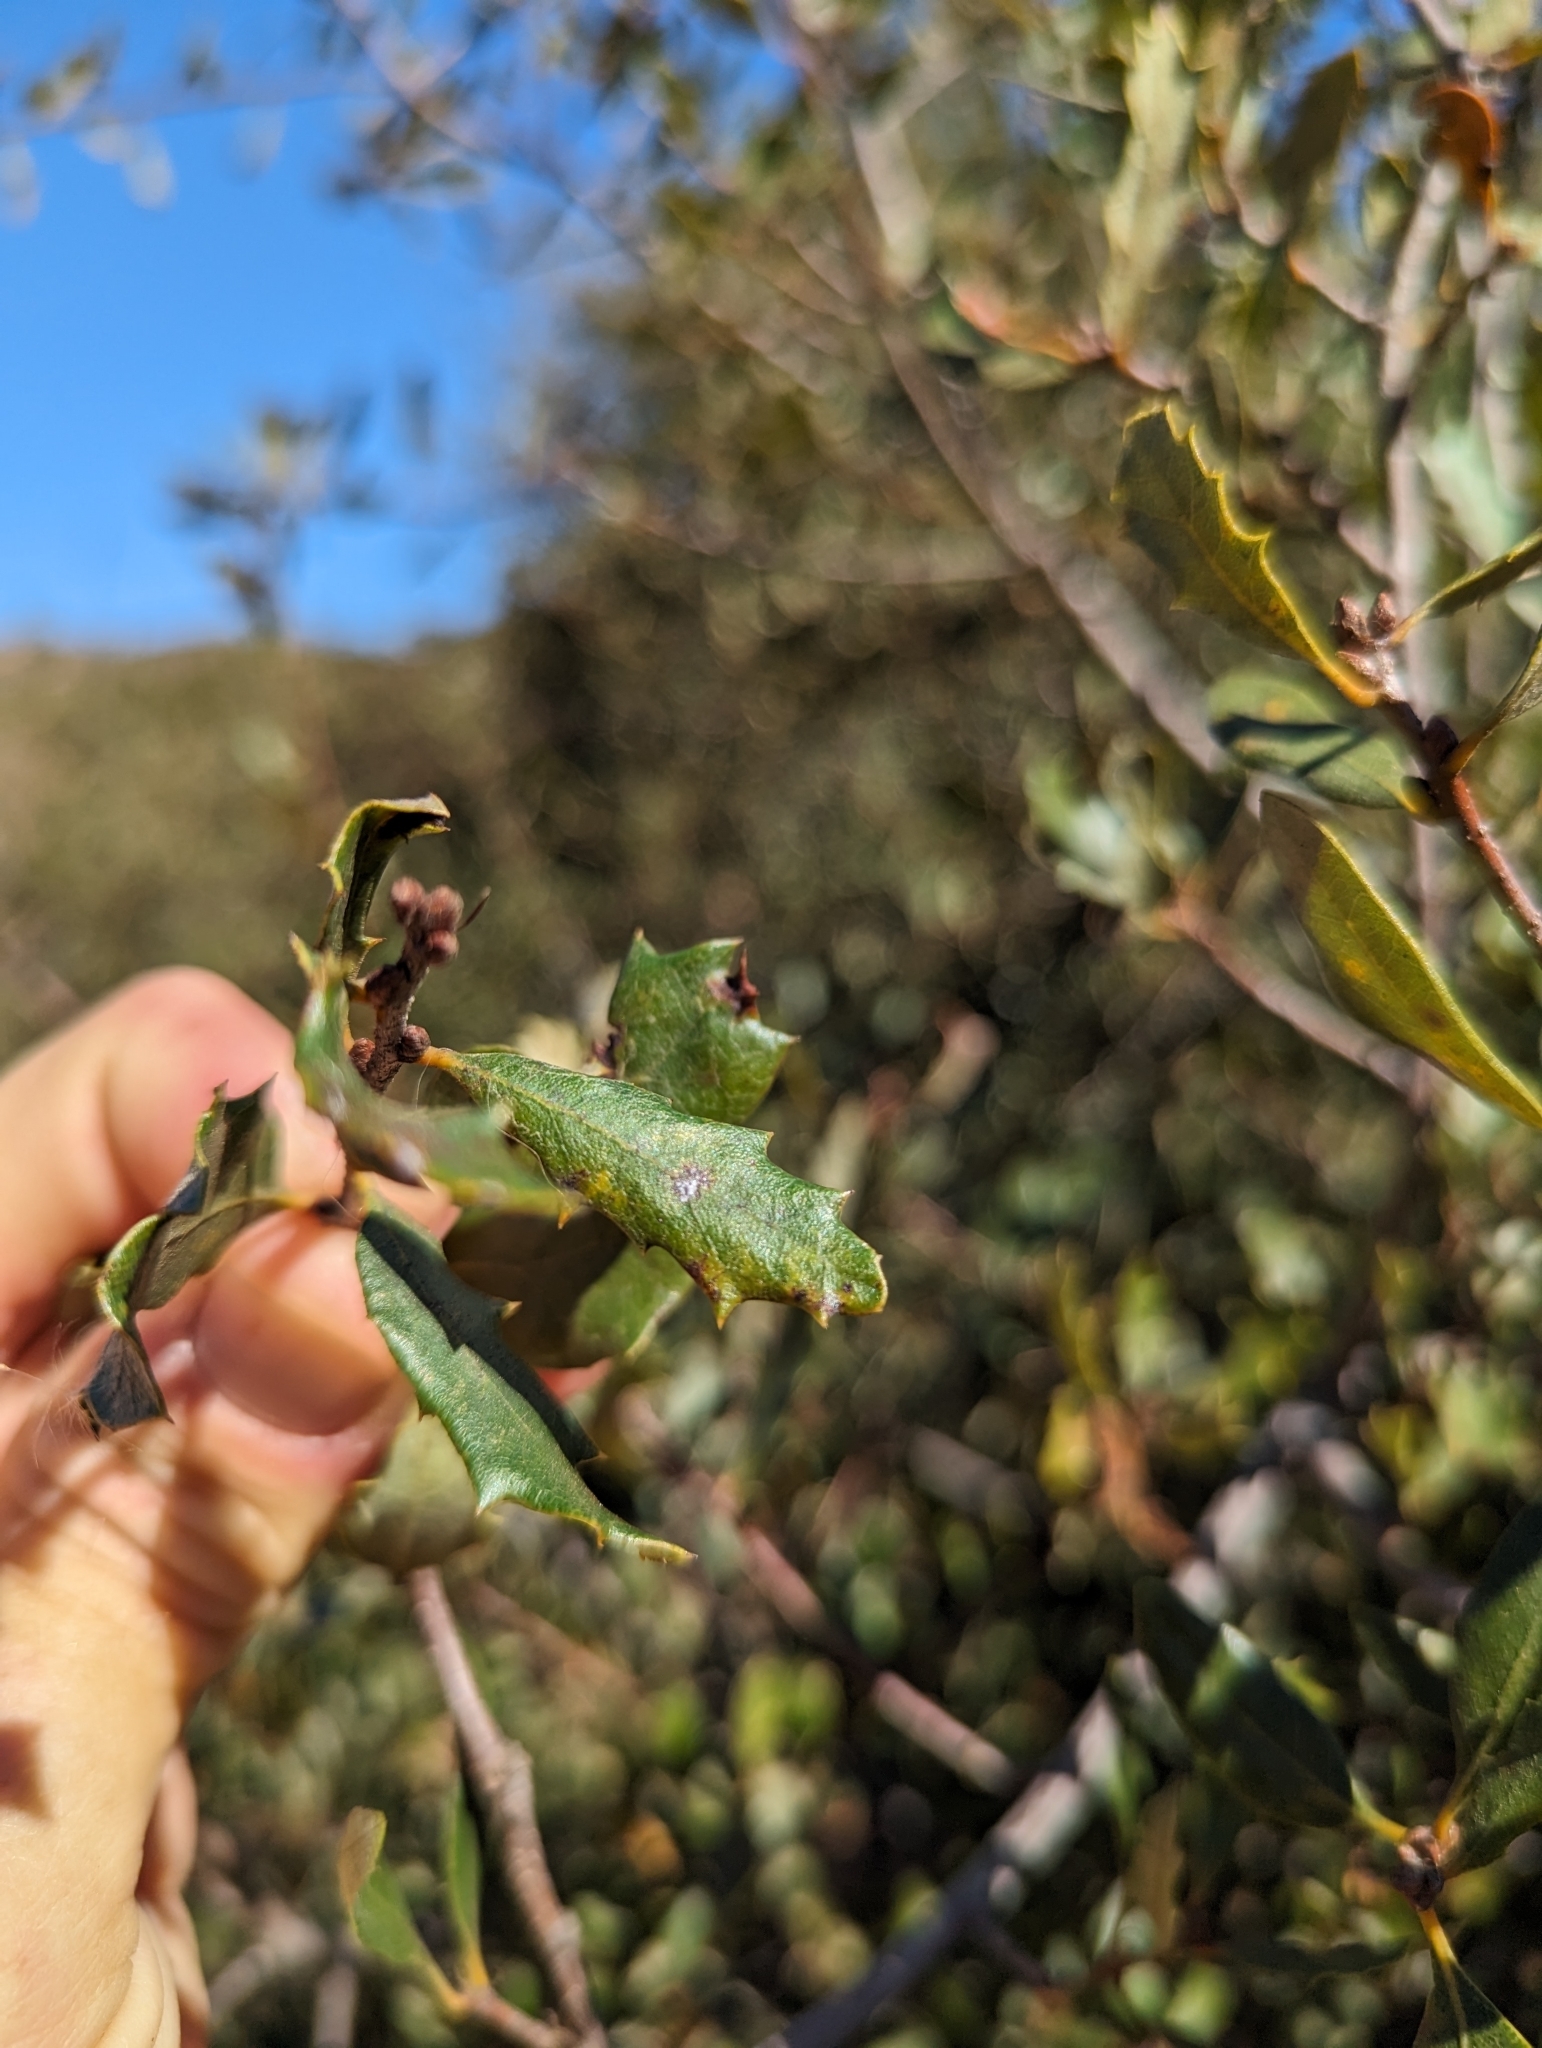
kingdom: Plantae
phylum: Tracheophyta
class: Magnoliopsida
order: Fagales
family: Fagaceae
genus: Quercus
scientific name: Quercus berberidifolia
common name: California scrub oak
